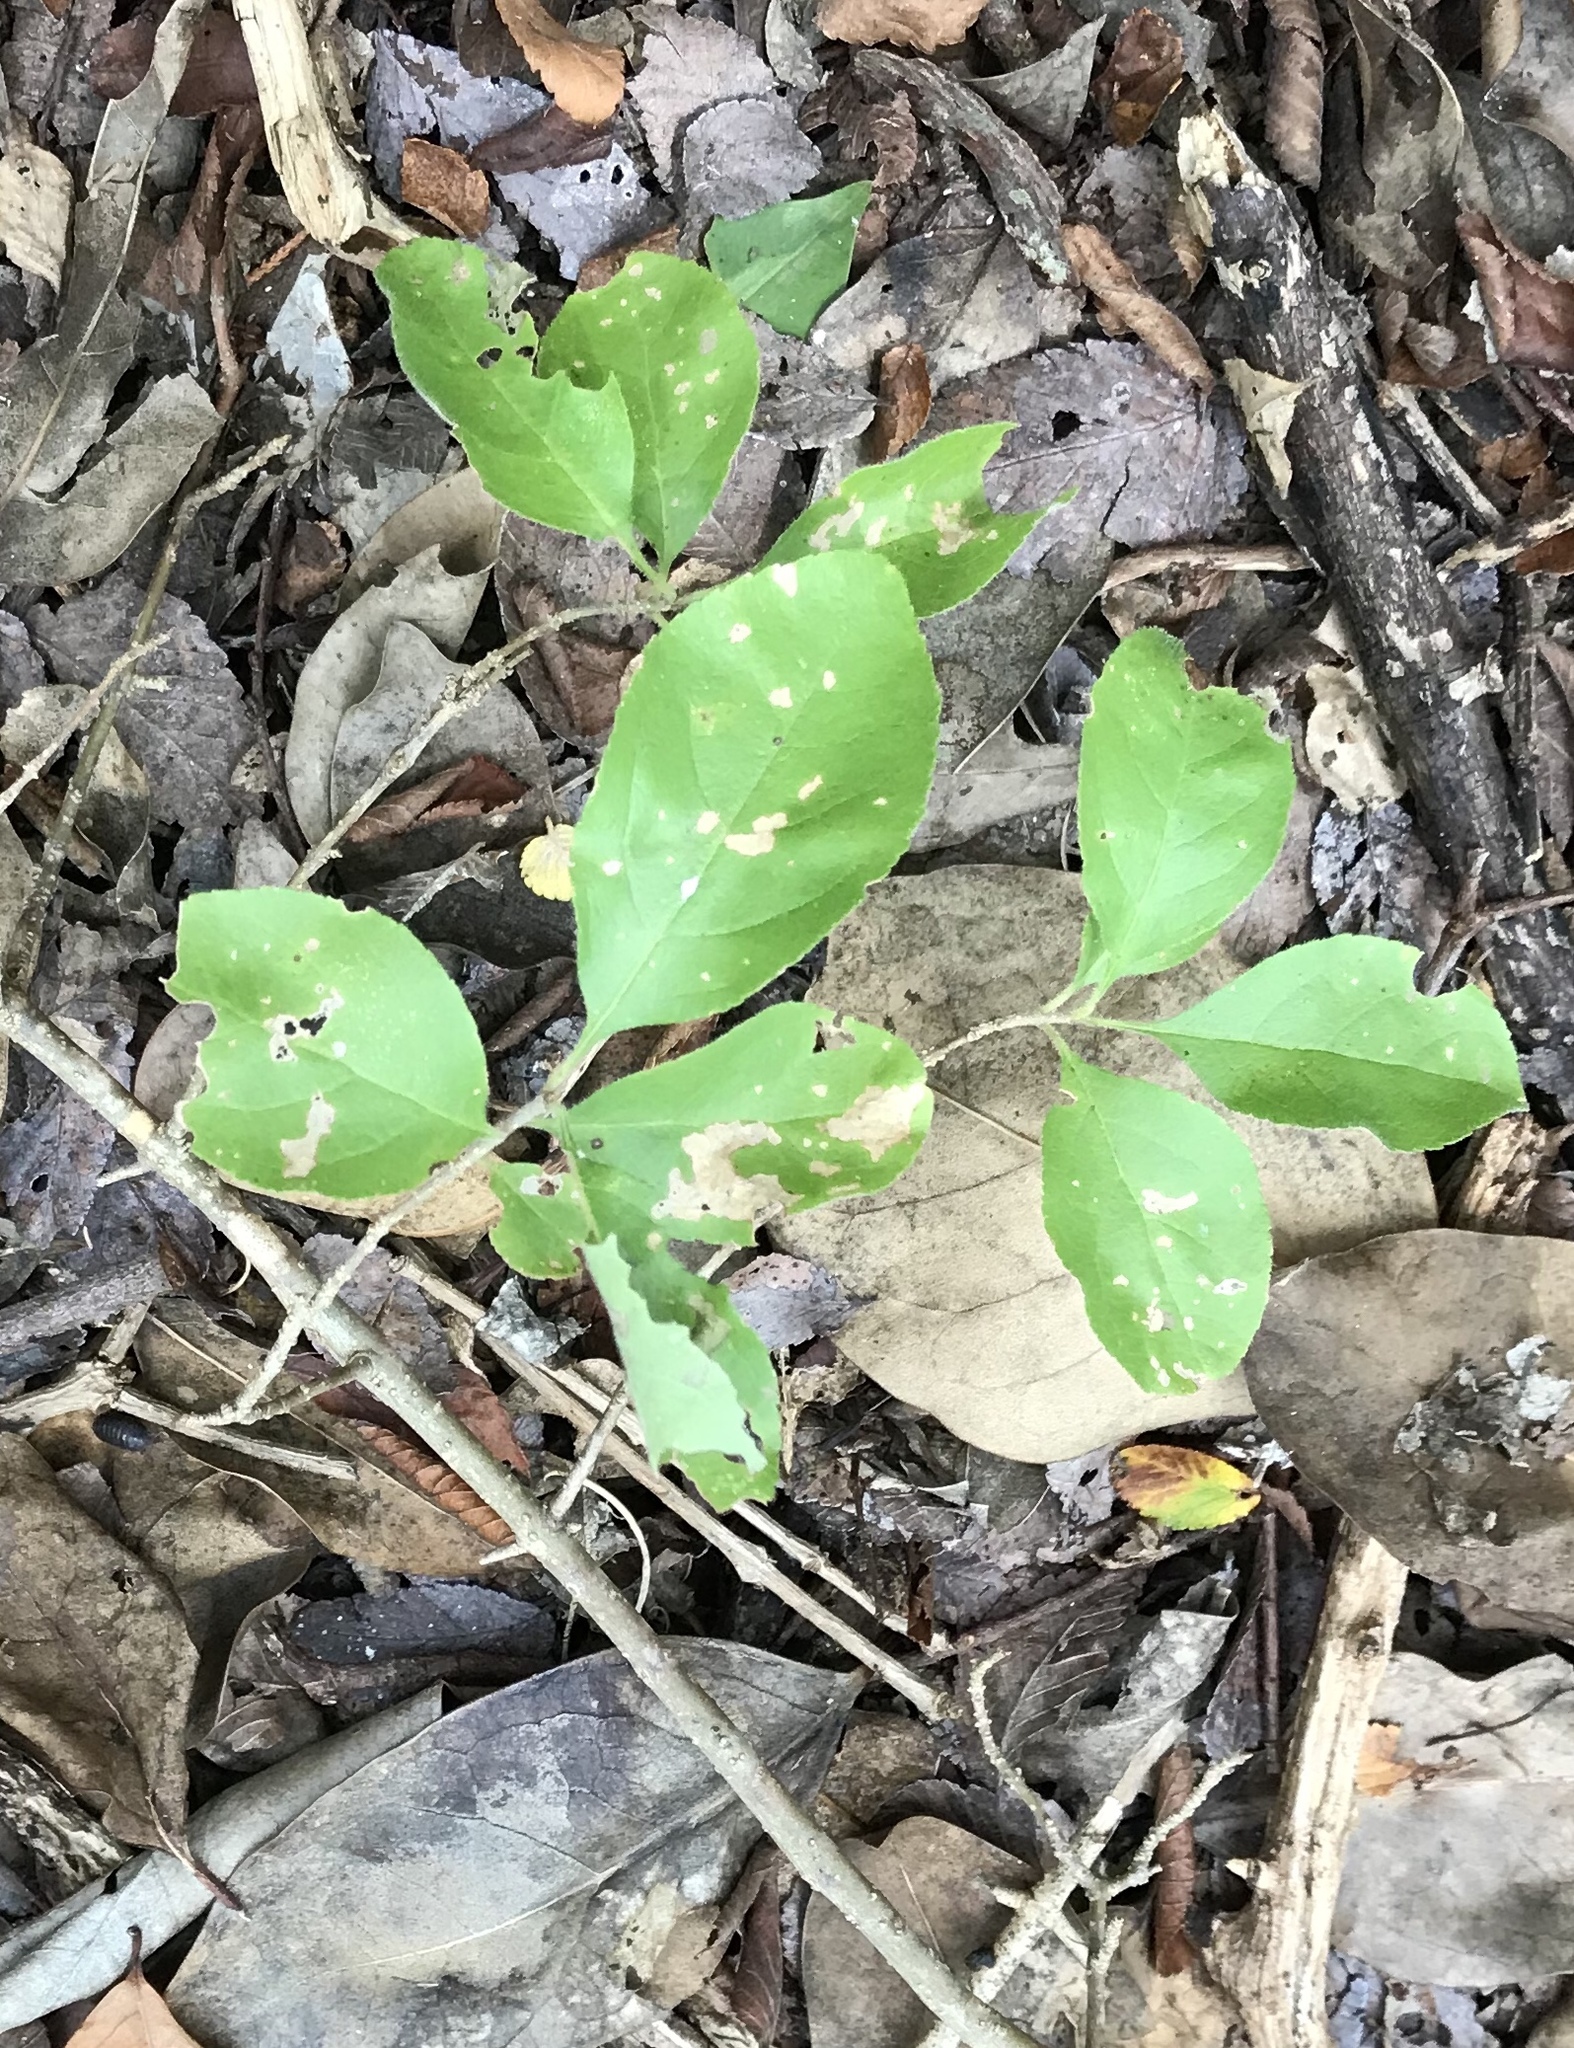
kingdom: Plantae
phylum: Tracheophyta
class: Magnoliopsida
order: Lamiales
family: Oleaceae
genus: Forestiera
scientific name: Forestiera pubescens
